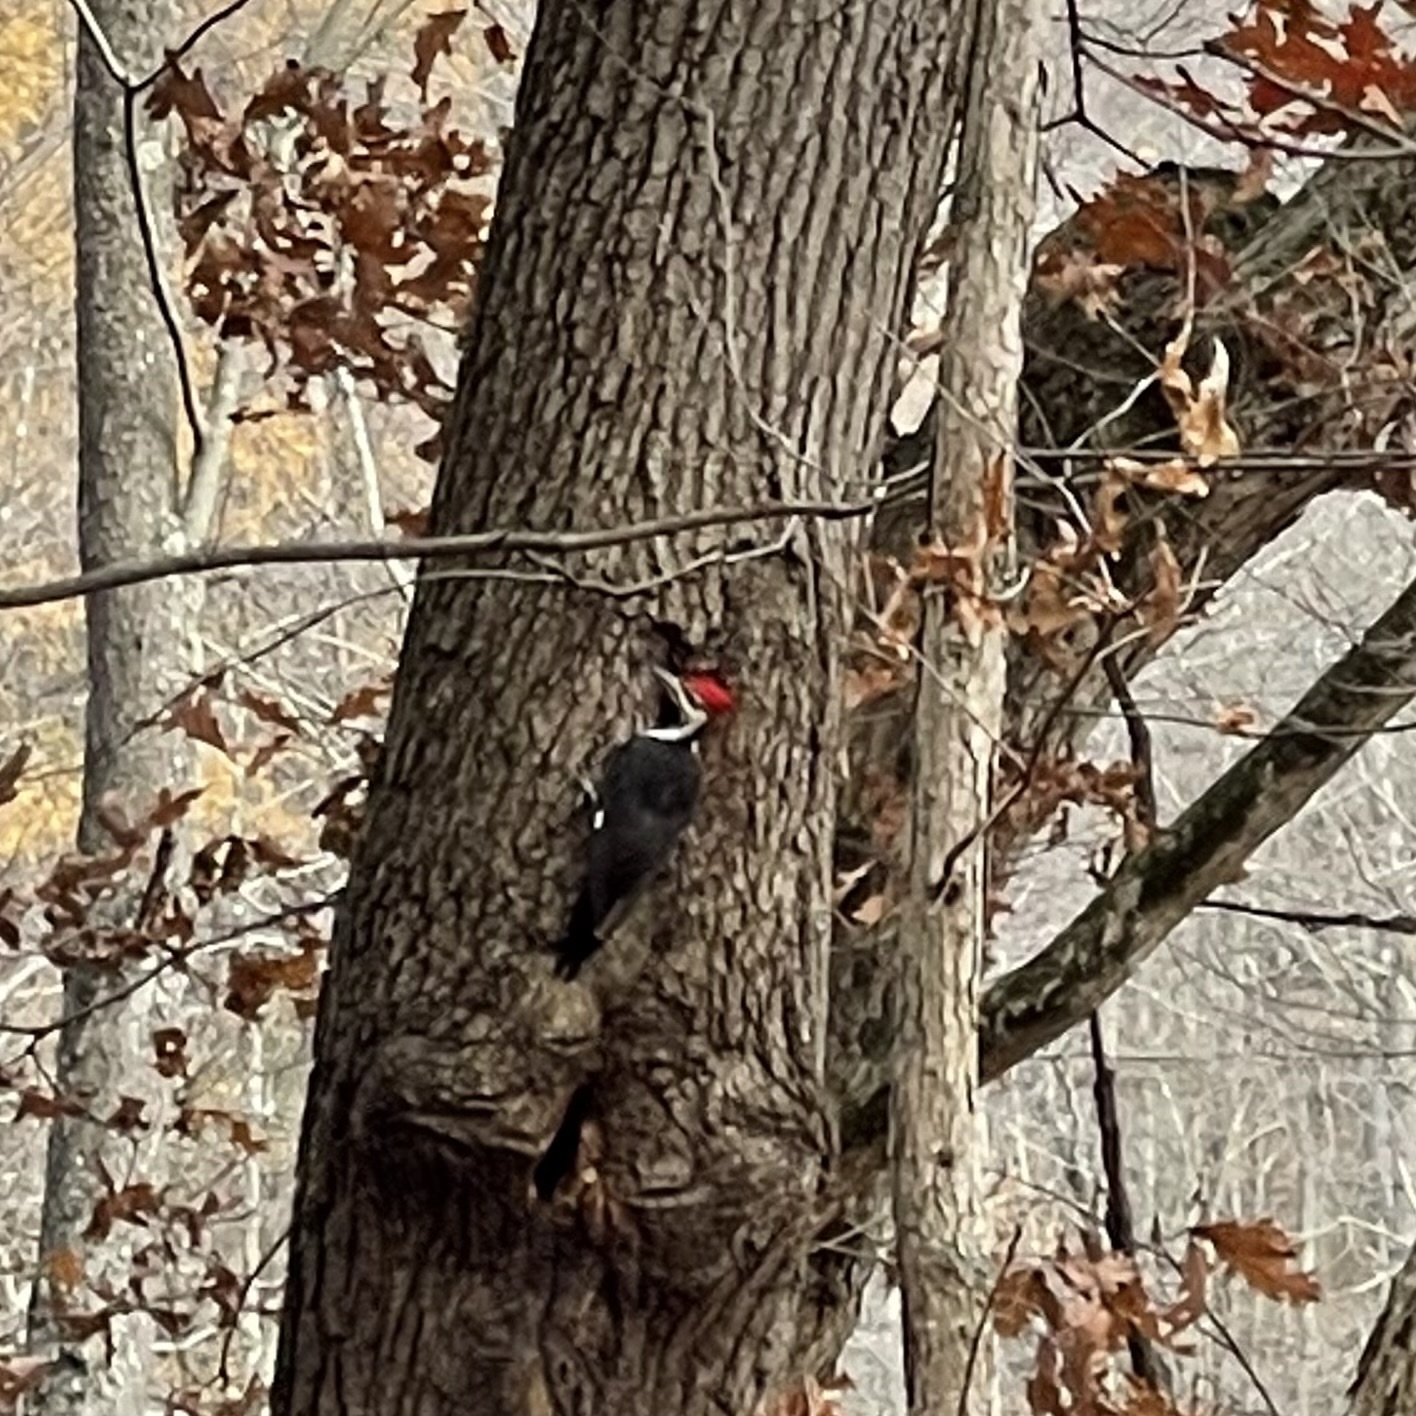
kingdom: Animalia
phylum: Chordata
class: Aves
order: Piciformes
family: Picidae
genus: Dryocopus
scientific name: Dryocopus pileatus
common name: Pileated woodpecker
